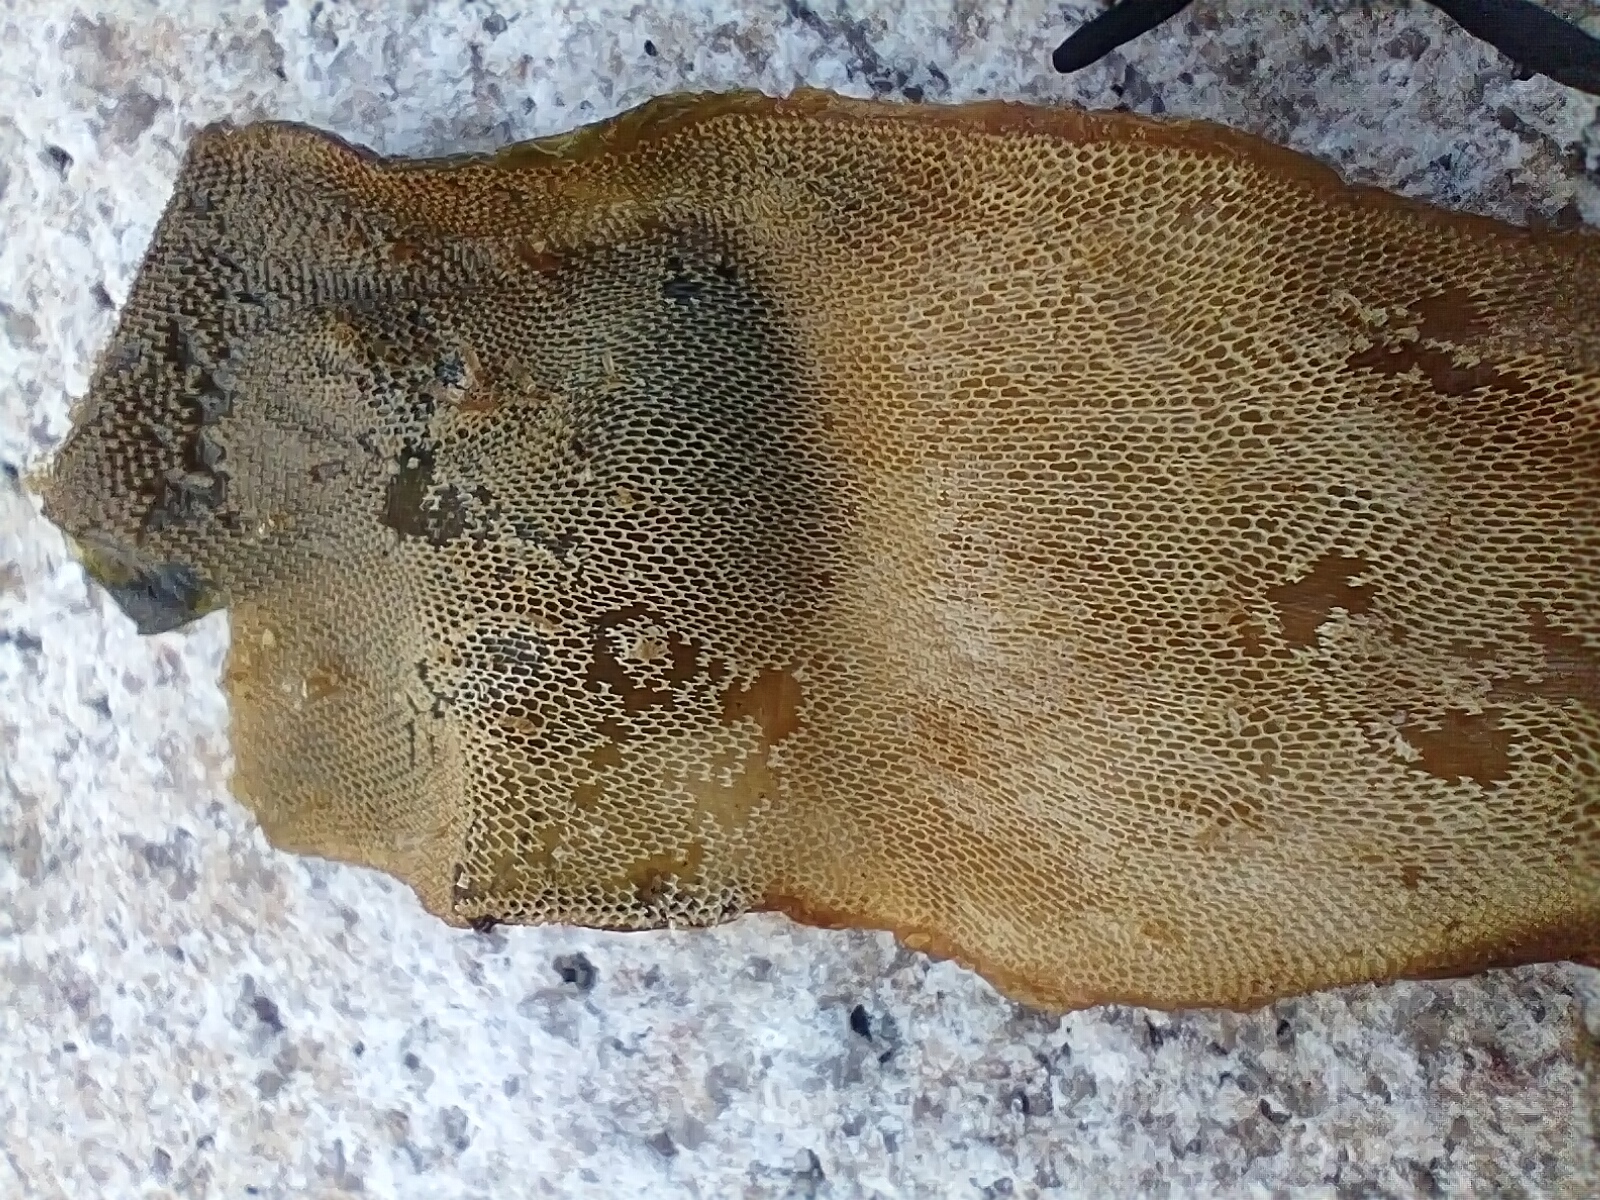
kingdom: Animalia
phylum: Bryozoa
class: Gymnolaemata
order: Cheilostomatida
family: Membraniporidae
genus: Membranipora
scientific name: Membranipora membranacea
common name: Sea mat
